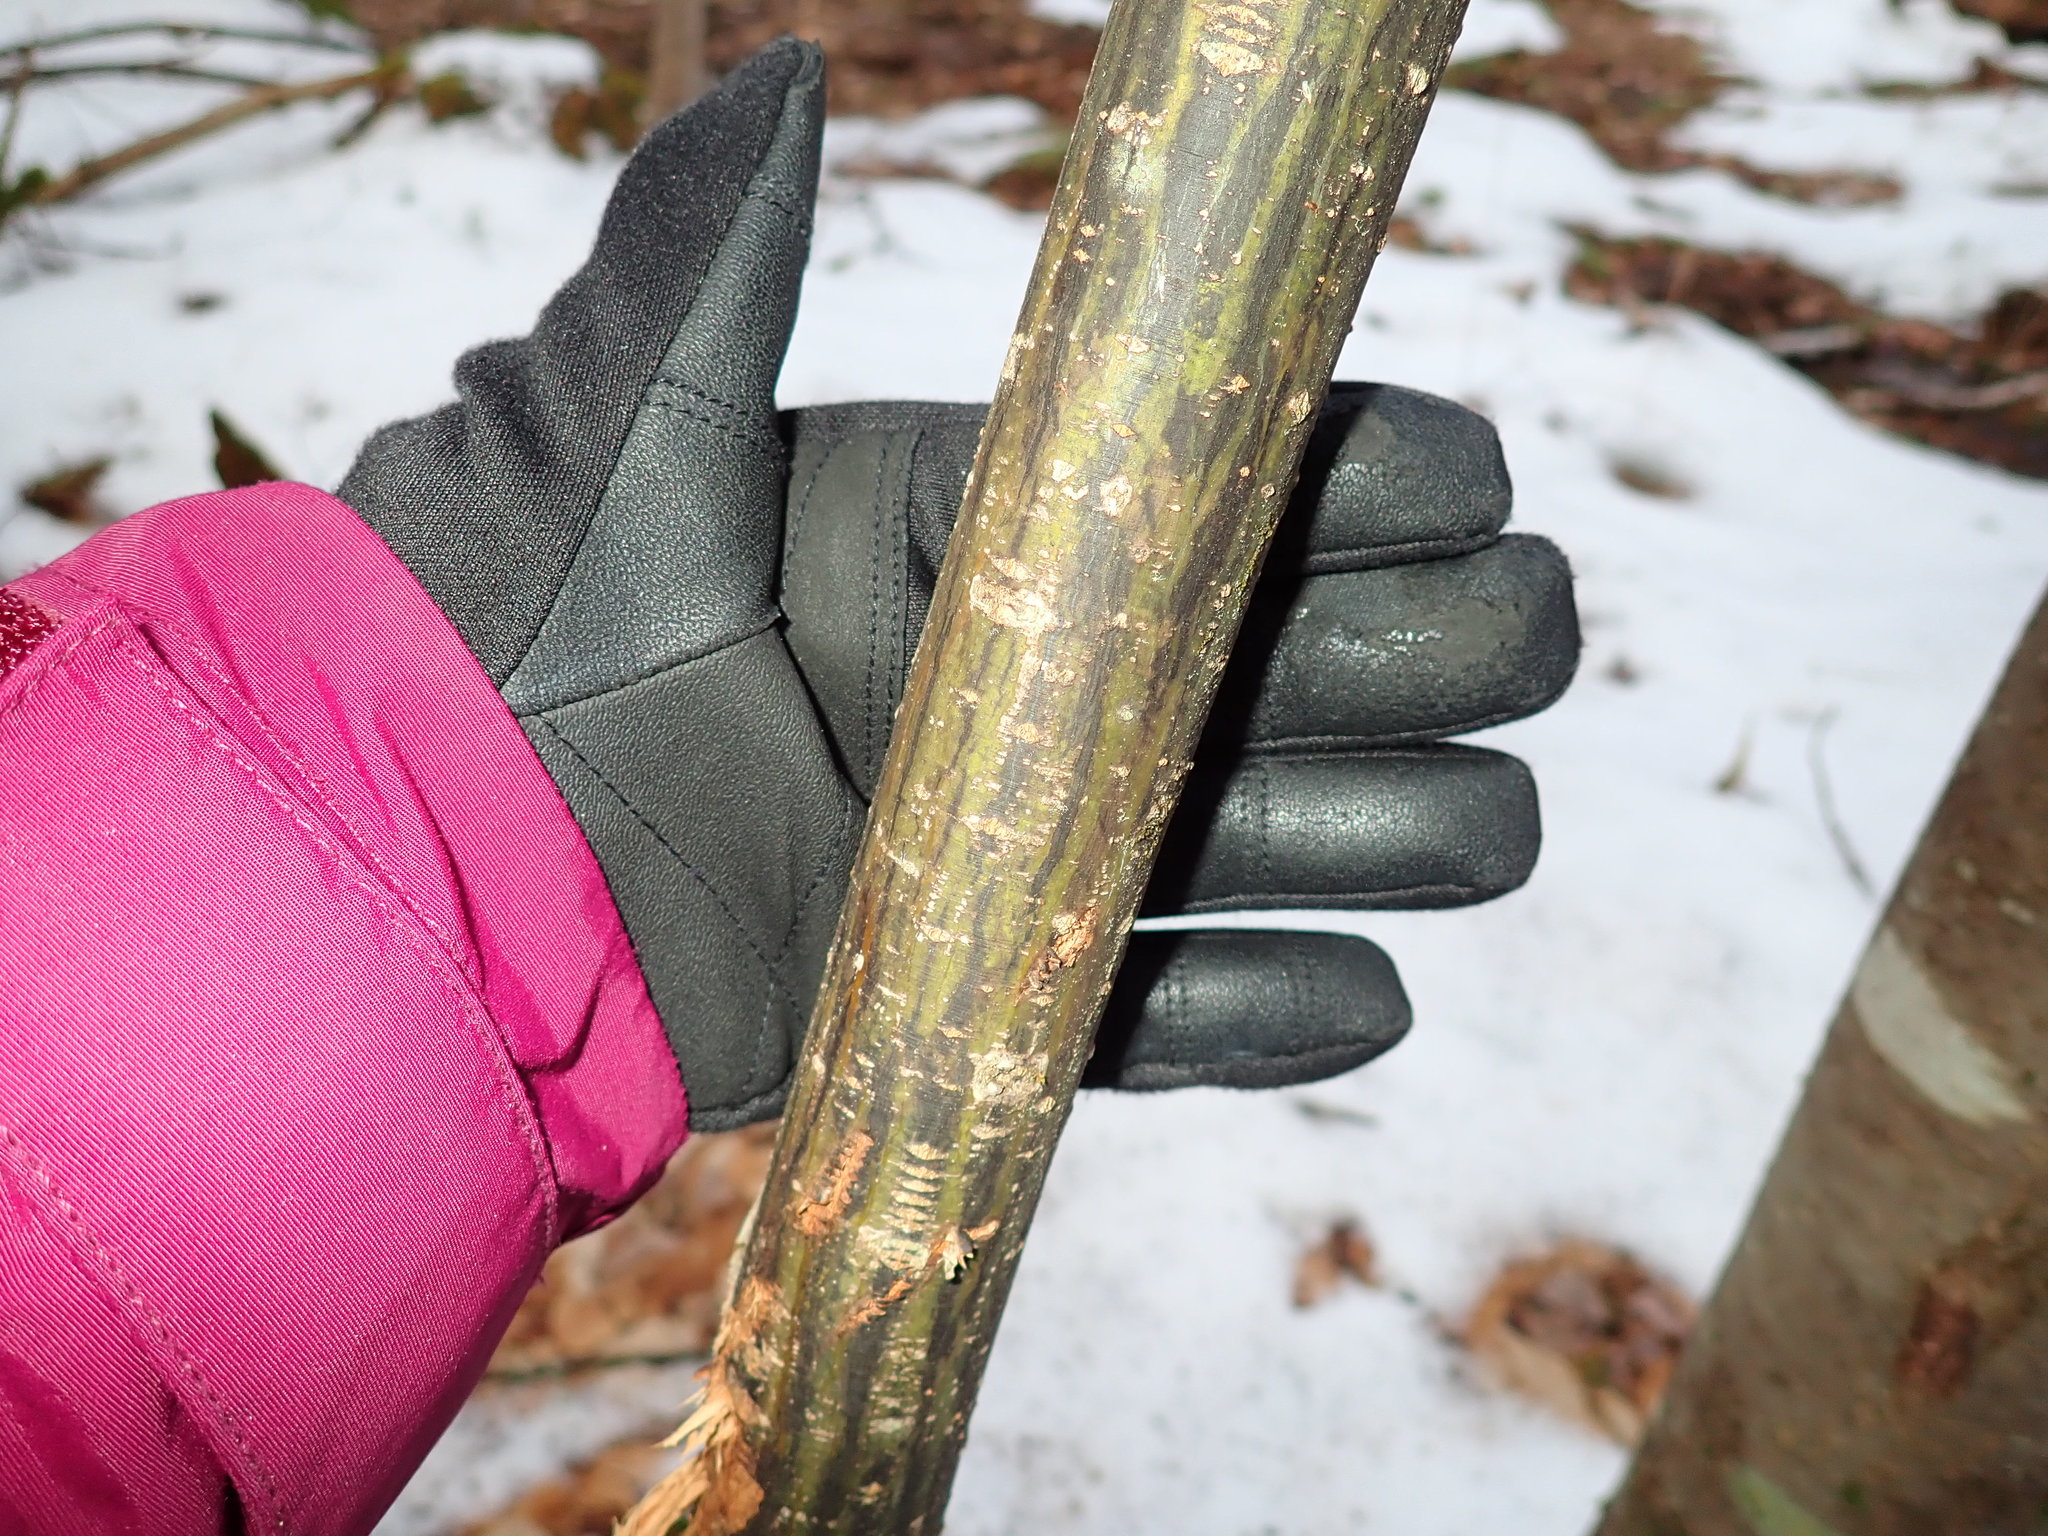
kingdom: Plantae
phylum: Tracheophyta
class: Magnoliopsida
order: Sapindales
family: Sapindaceae
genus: Acer
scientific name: Acer pensylvanicum
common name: Moosewood
